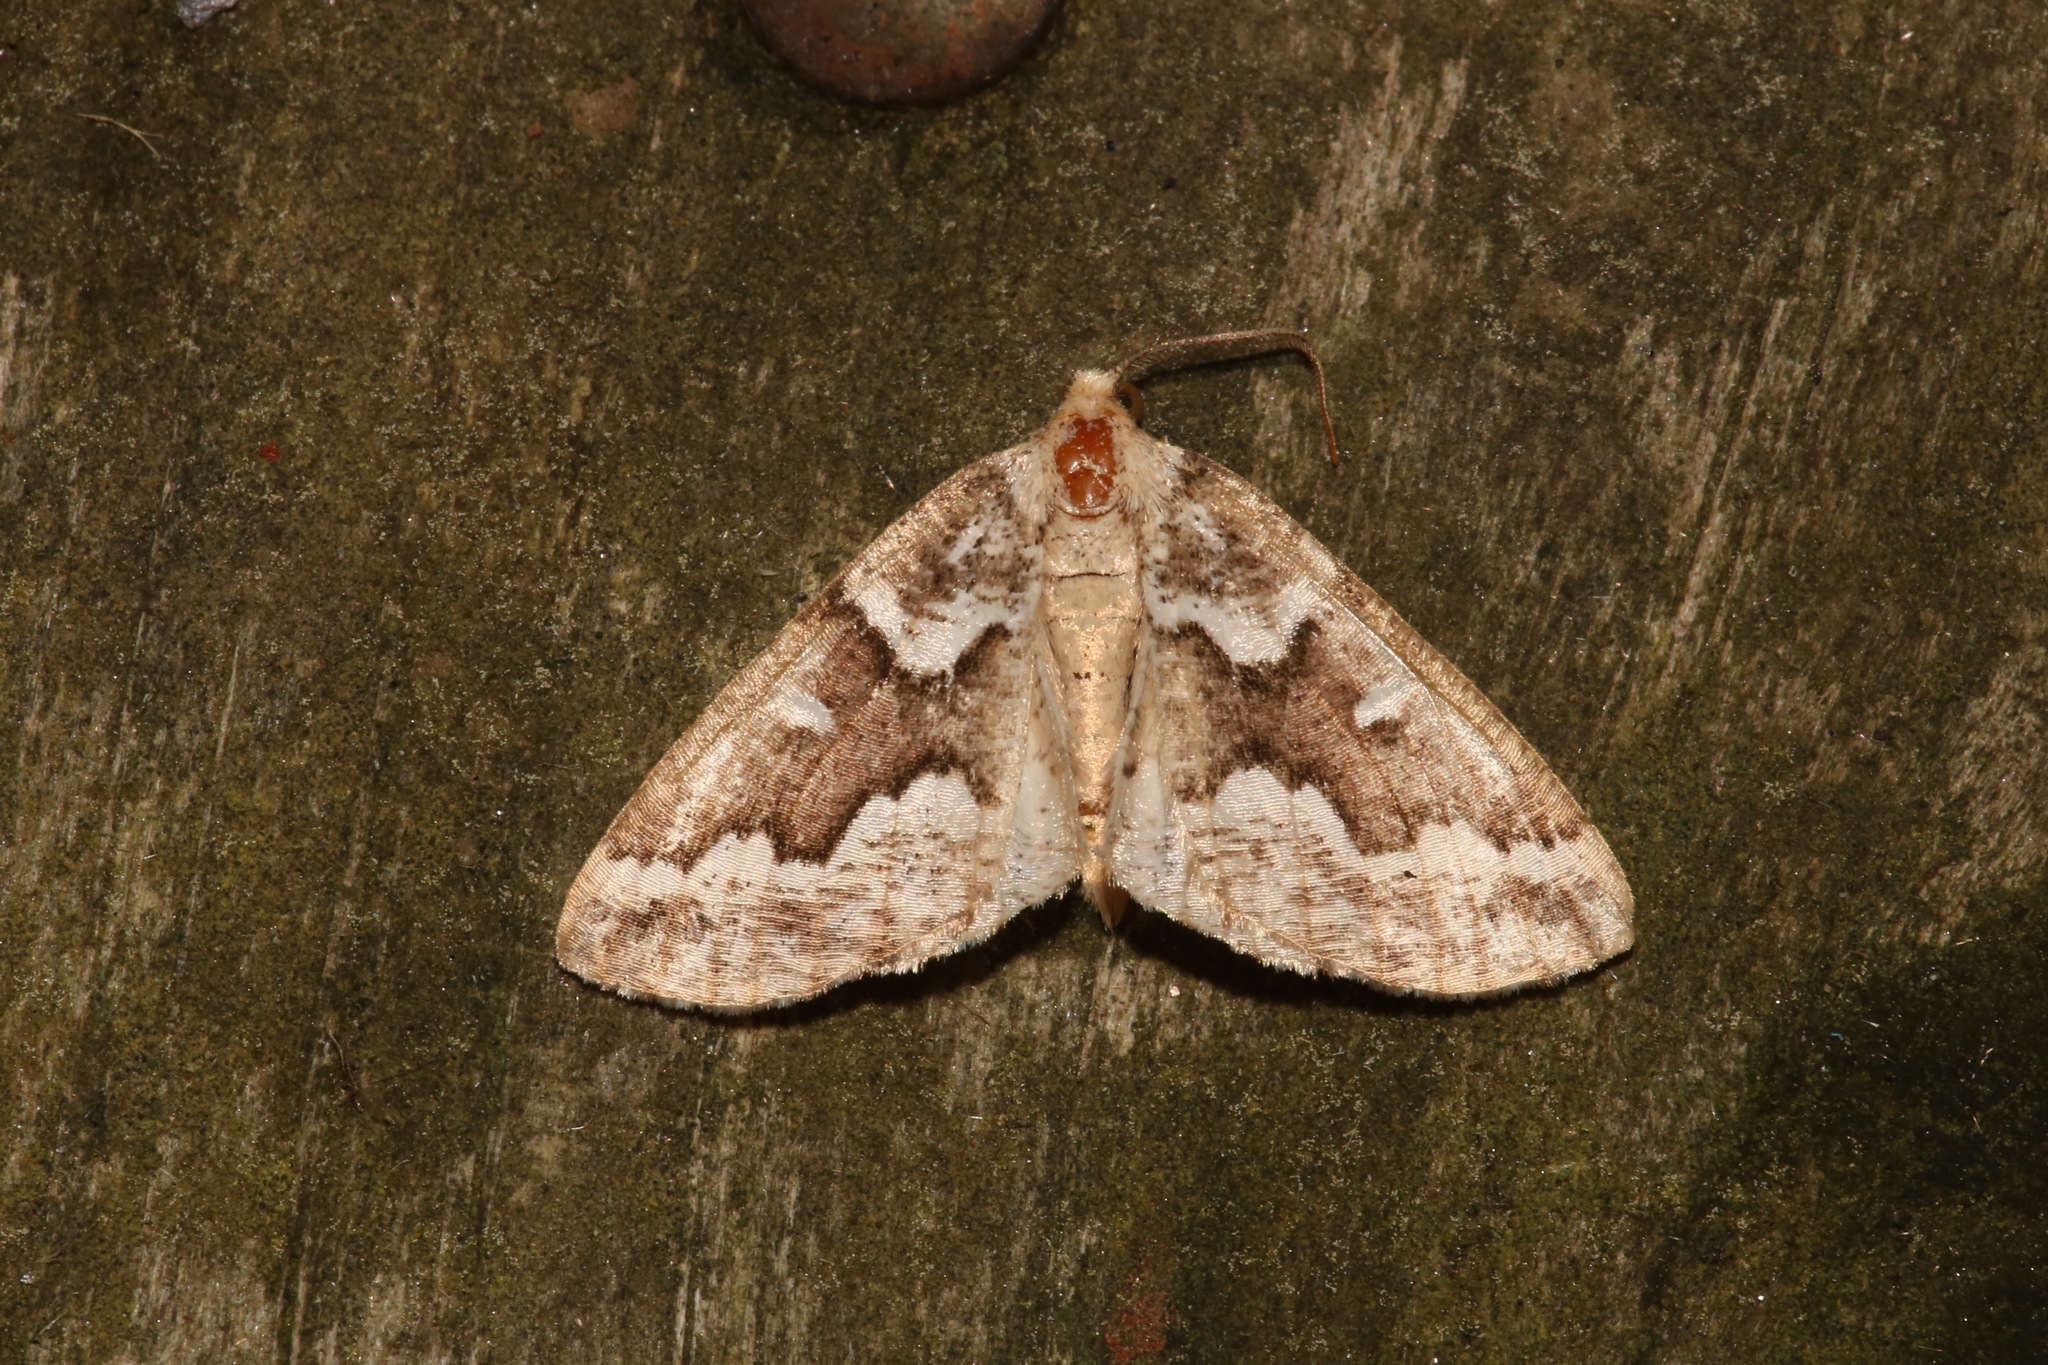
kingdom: Animalia
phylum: Arthropoda
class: Insecta
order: Lepidoptera
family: Geometridae
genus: Caripeta
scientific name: Caripeta divisata
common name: Gray spruce looper
